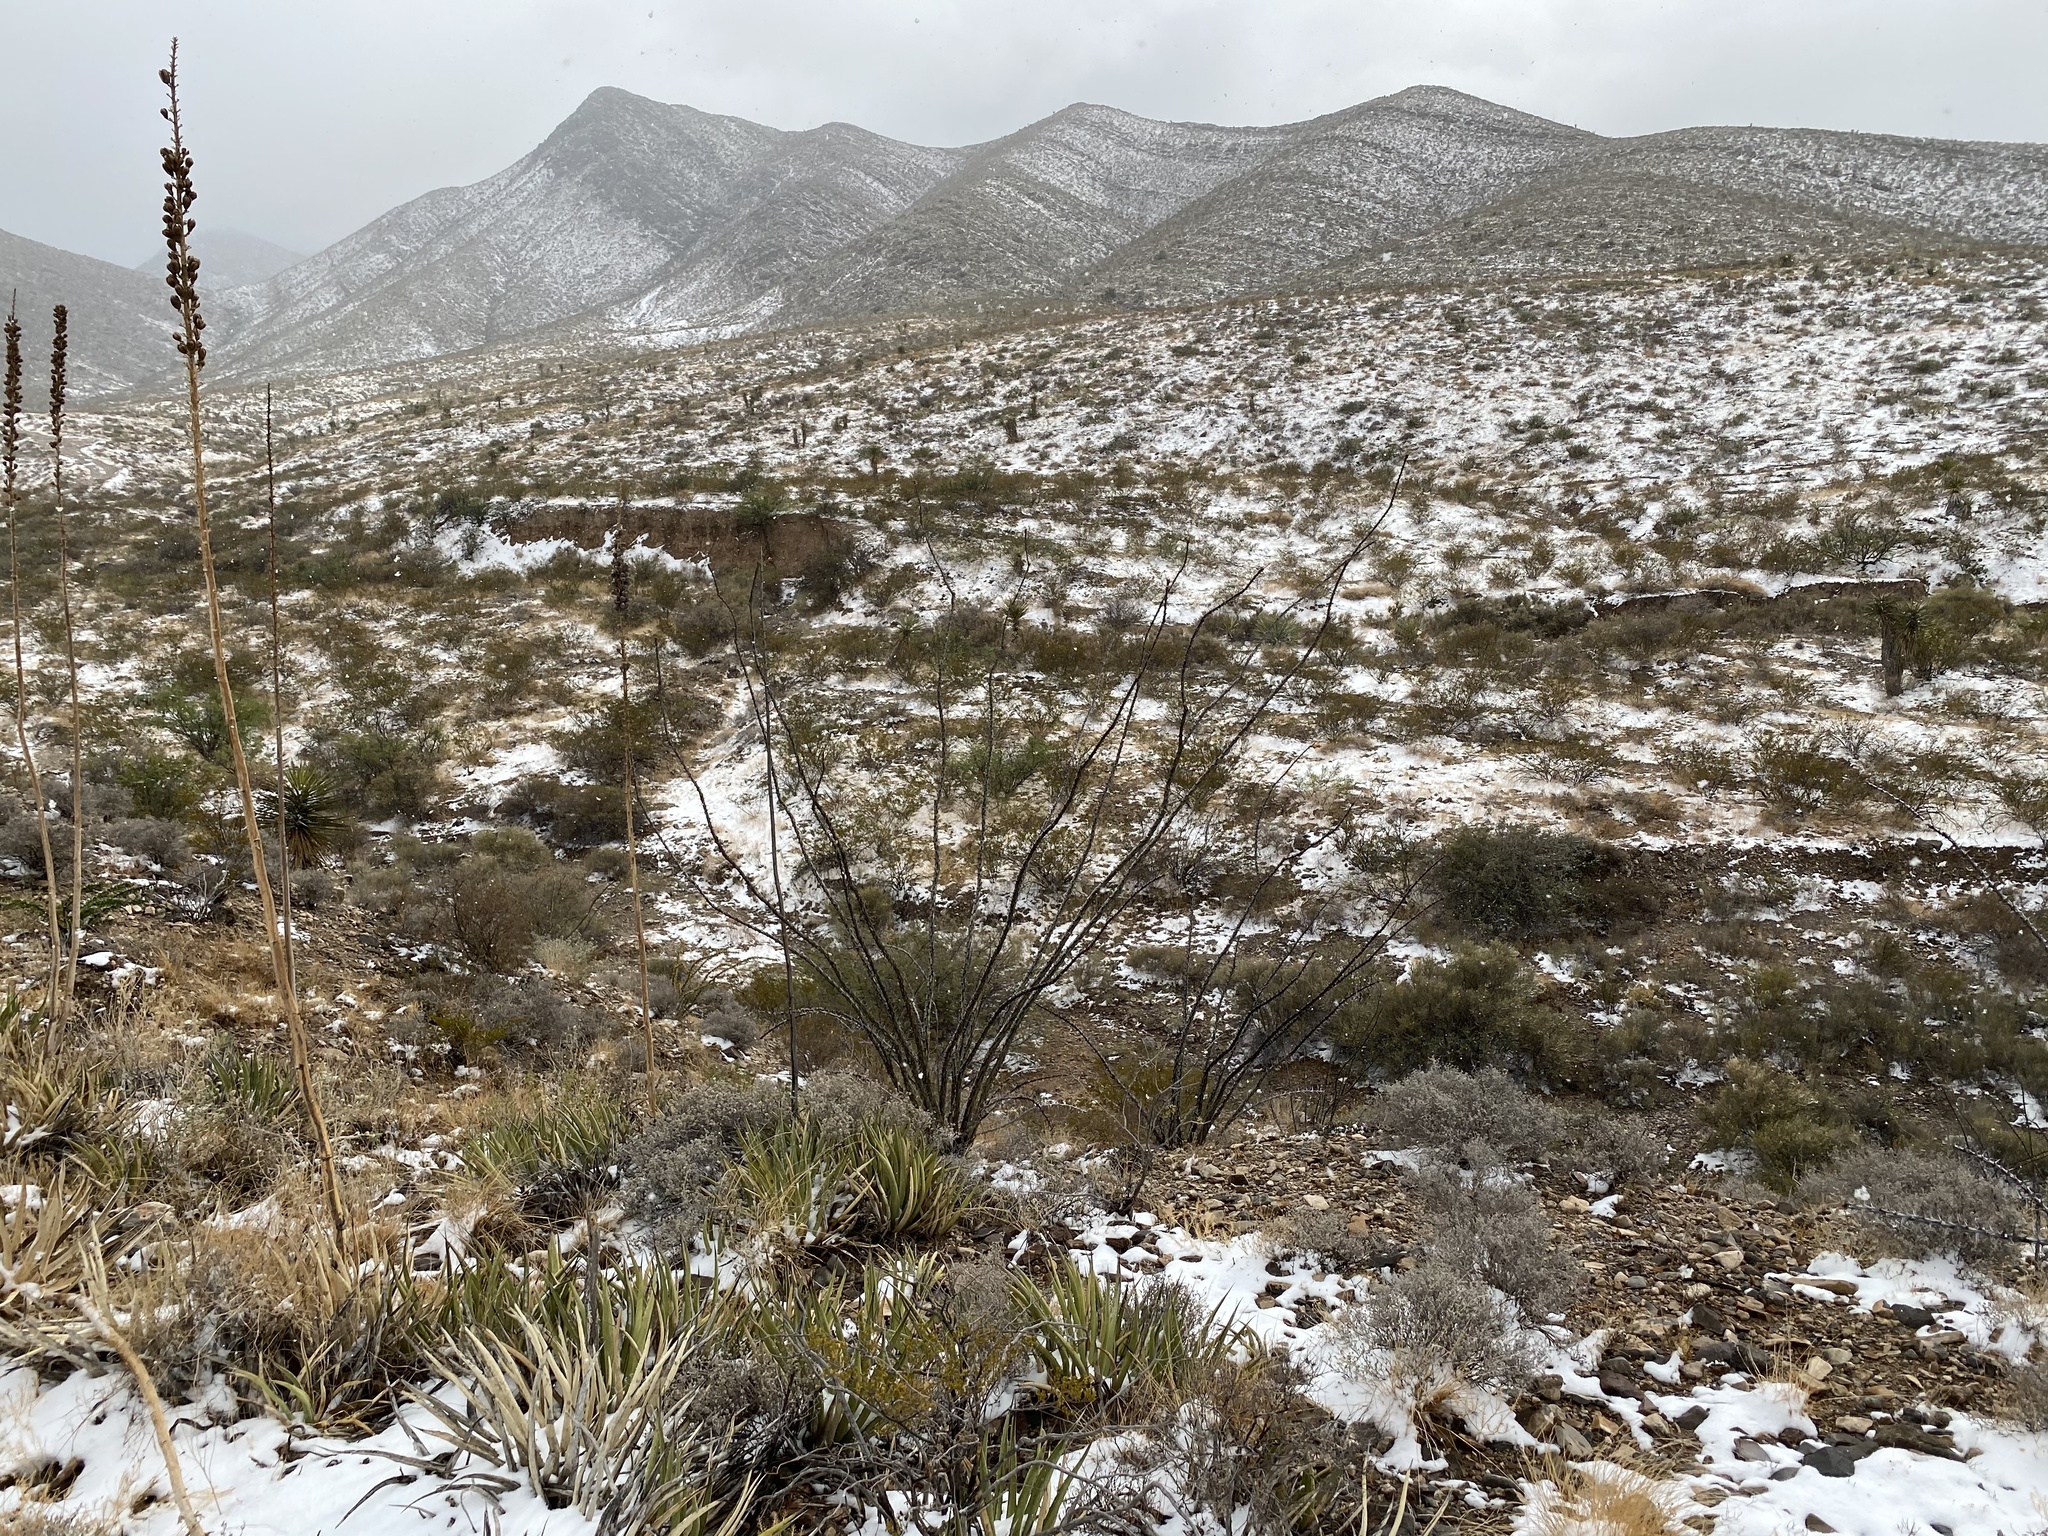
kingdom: Plantae
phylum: Tracheophyta
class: Magnoliopsida
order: Ericales
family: Fouquieriaceae
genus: Fouquieria
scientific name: Fouquieria splendens
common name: Vine-cactus
